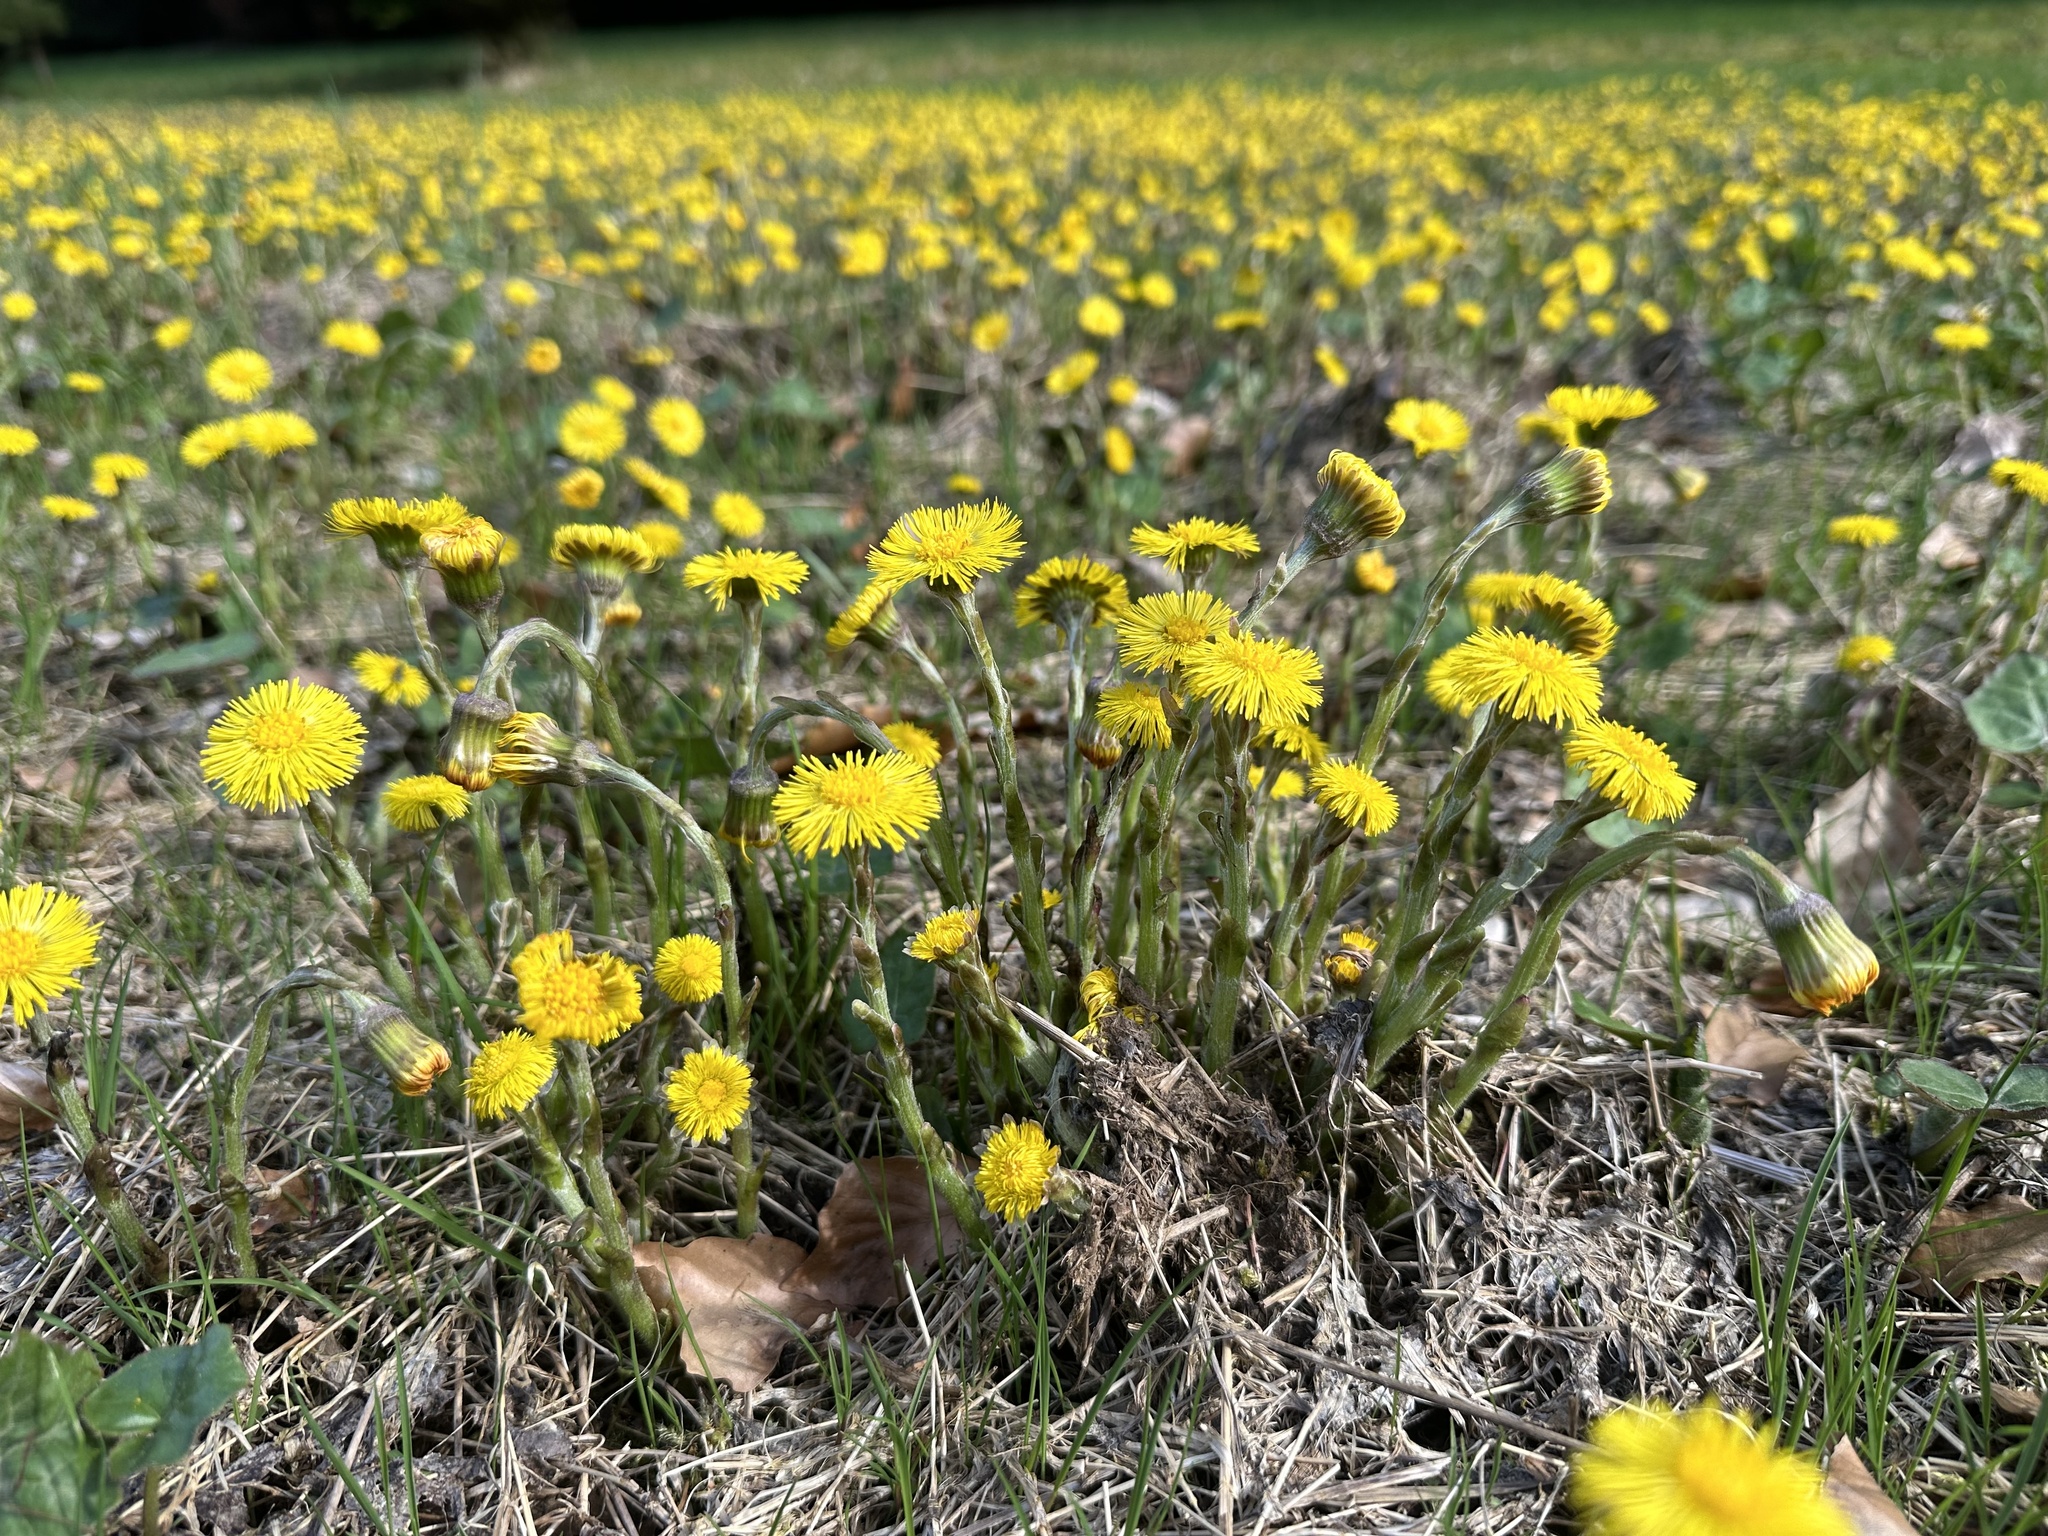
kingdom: Plantae
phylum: Tracheophyta
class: Magnoliopsida
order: Asterales
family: Asteraceae
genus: Tussilago
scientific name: Tussilago farfara
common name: Coltsfoot
